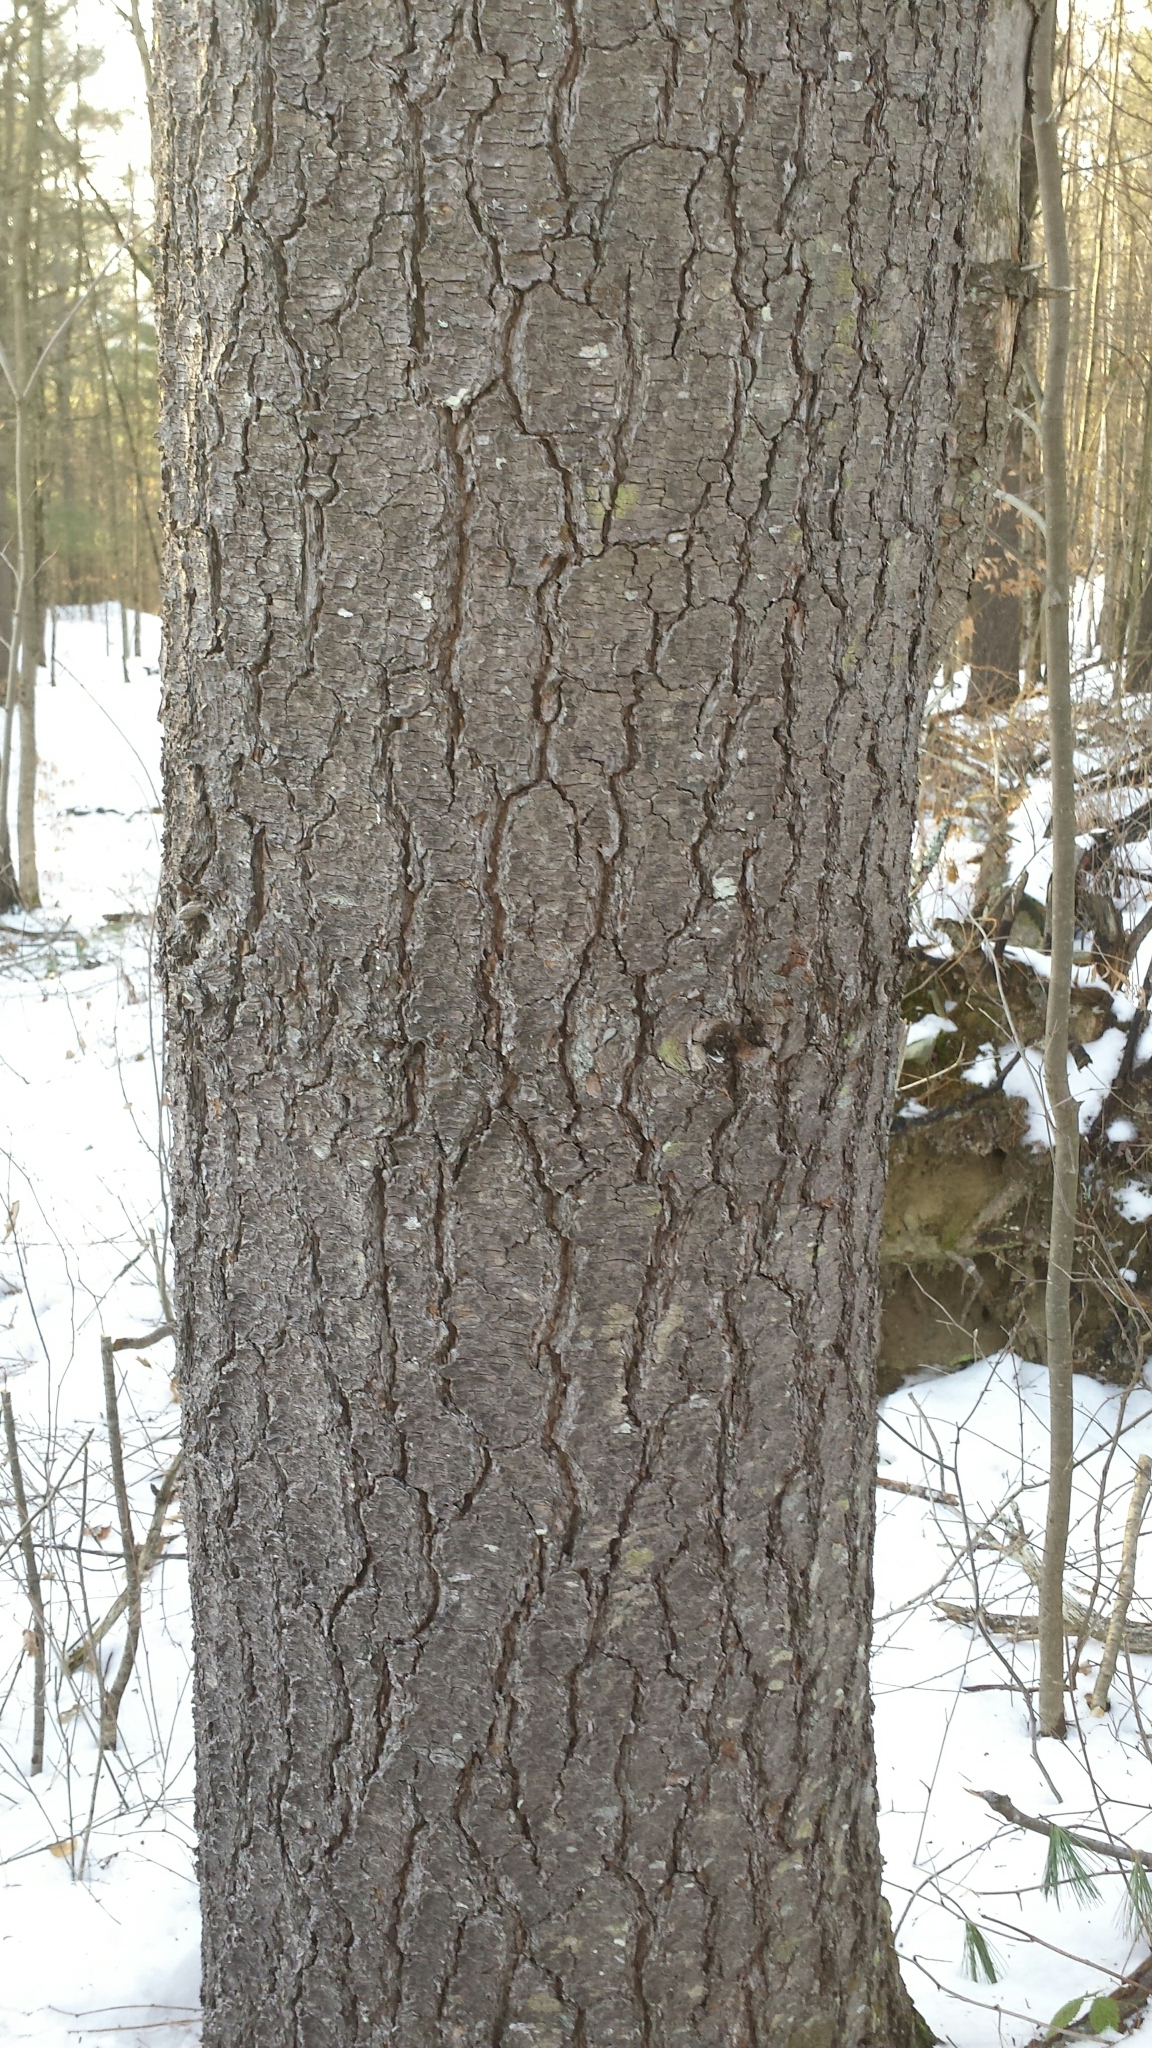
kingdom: Plantae
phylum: Tracheophyta
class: Pinopsida
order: Pinales
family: Pinaceae
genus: Pinus
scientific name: Pinus strobus
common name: Weymouth pine
